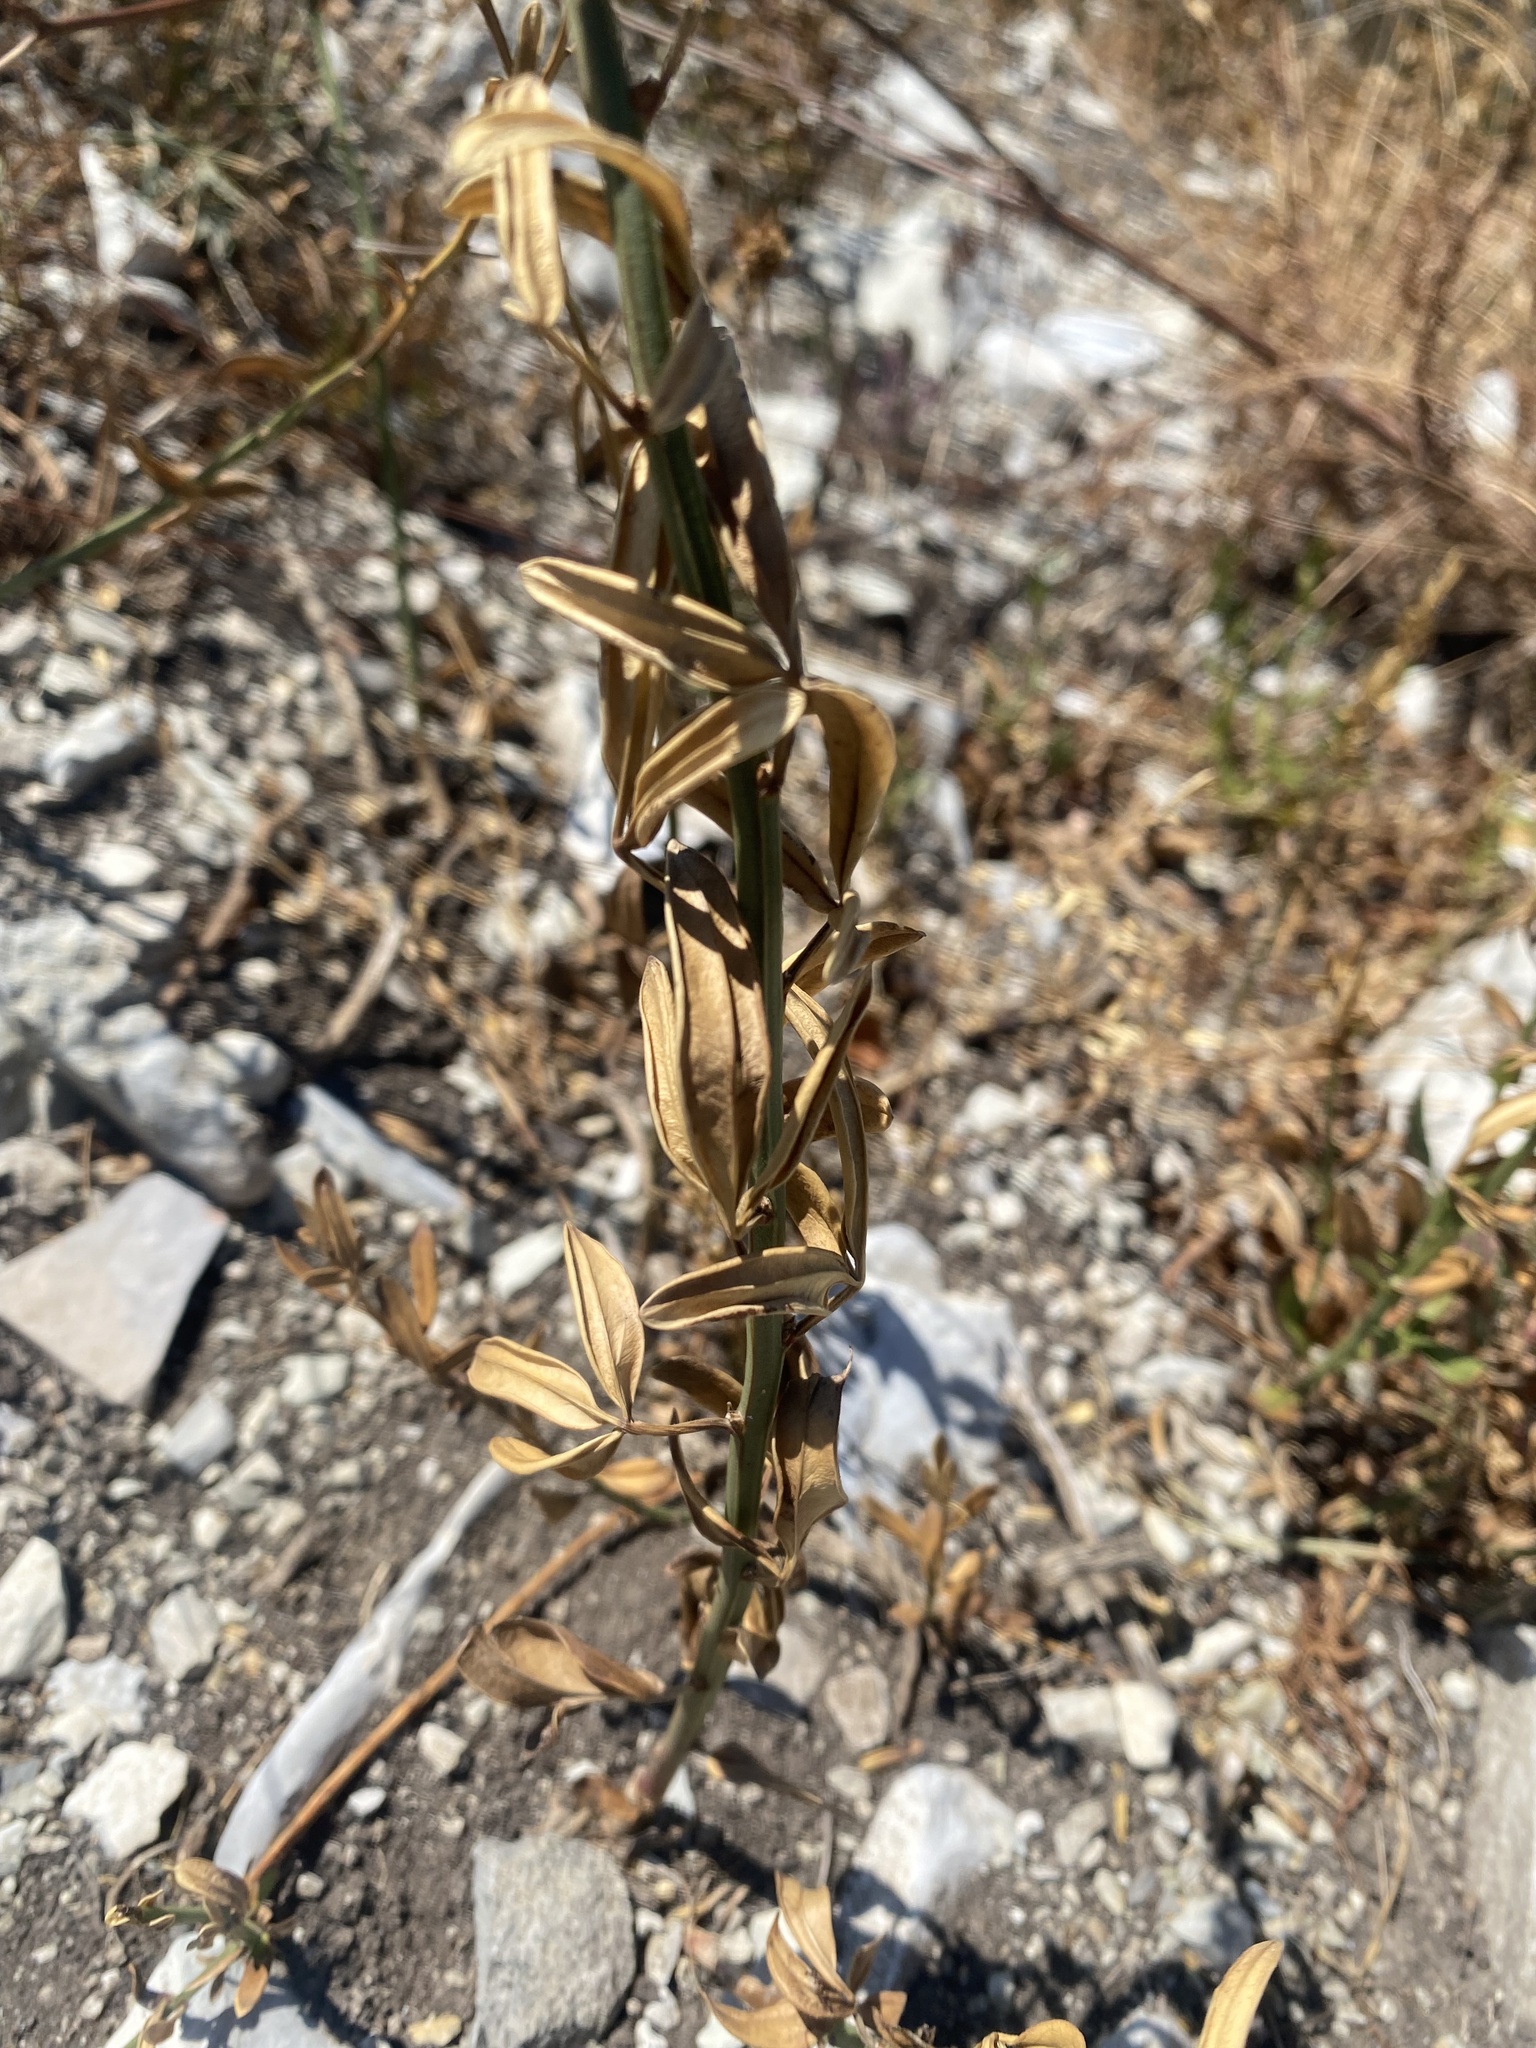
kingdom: Plantae
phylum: Tracheophyta
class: Magnoliopsida
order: Lamiales
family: Oleaceae
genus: Chrysojasminum
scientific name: Chrysojasminum fruticans
